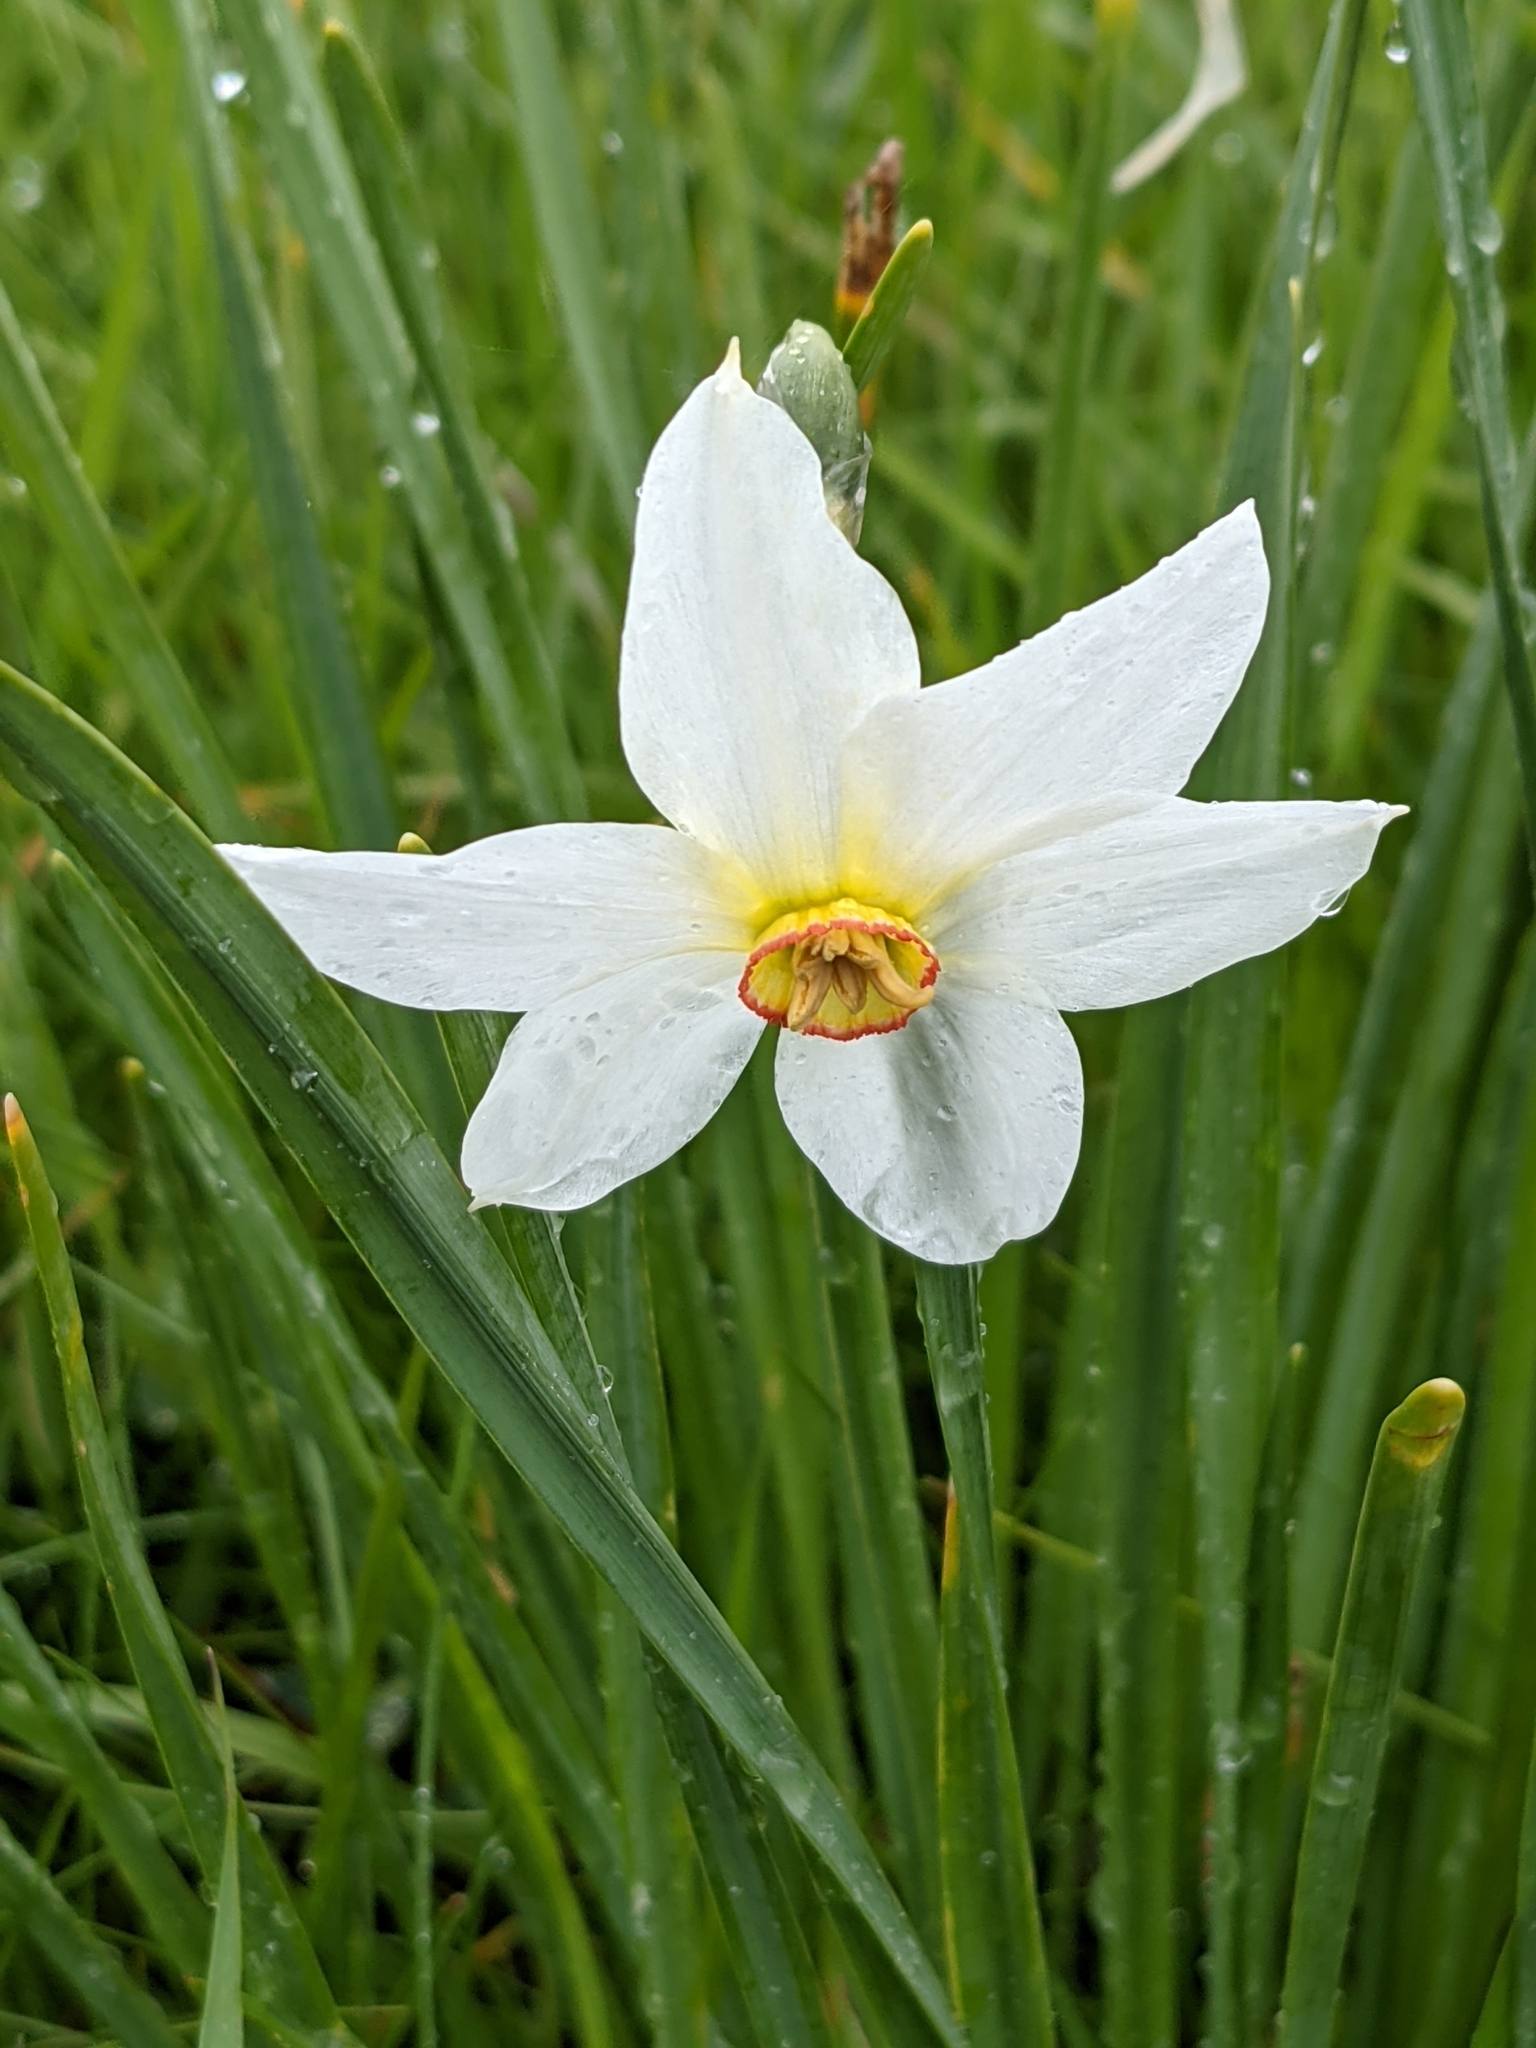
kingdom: Plantae
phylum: Tracheophyta
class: Liliopsida
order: Asparagales
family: Amaryllidaceae
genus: Narcissus
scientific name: Narcissus poeticus
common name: Pheasant's-eye daffodil
